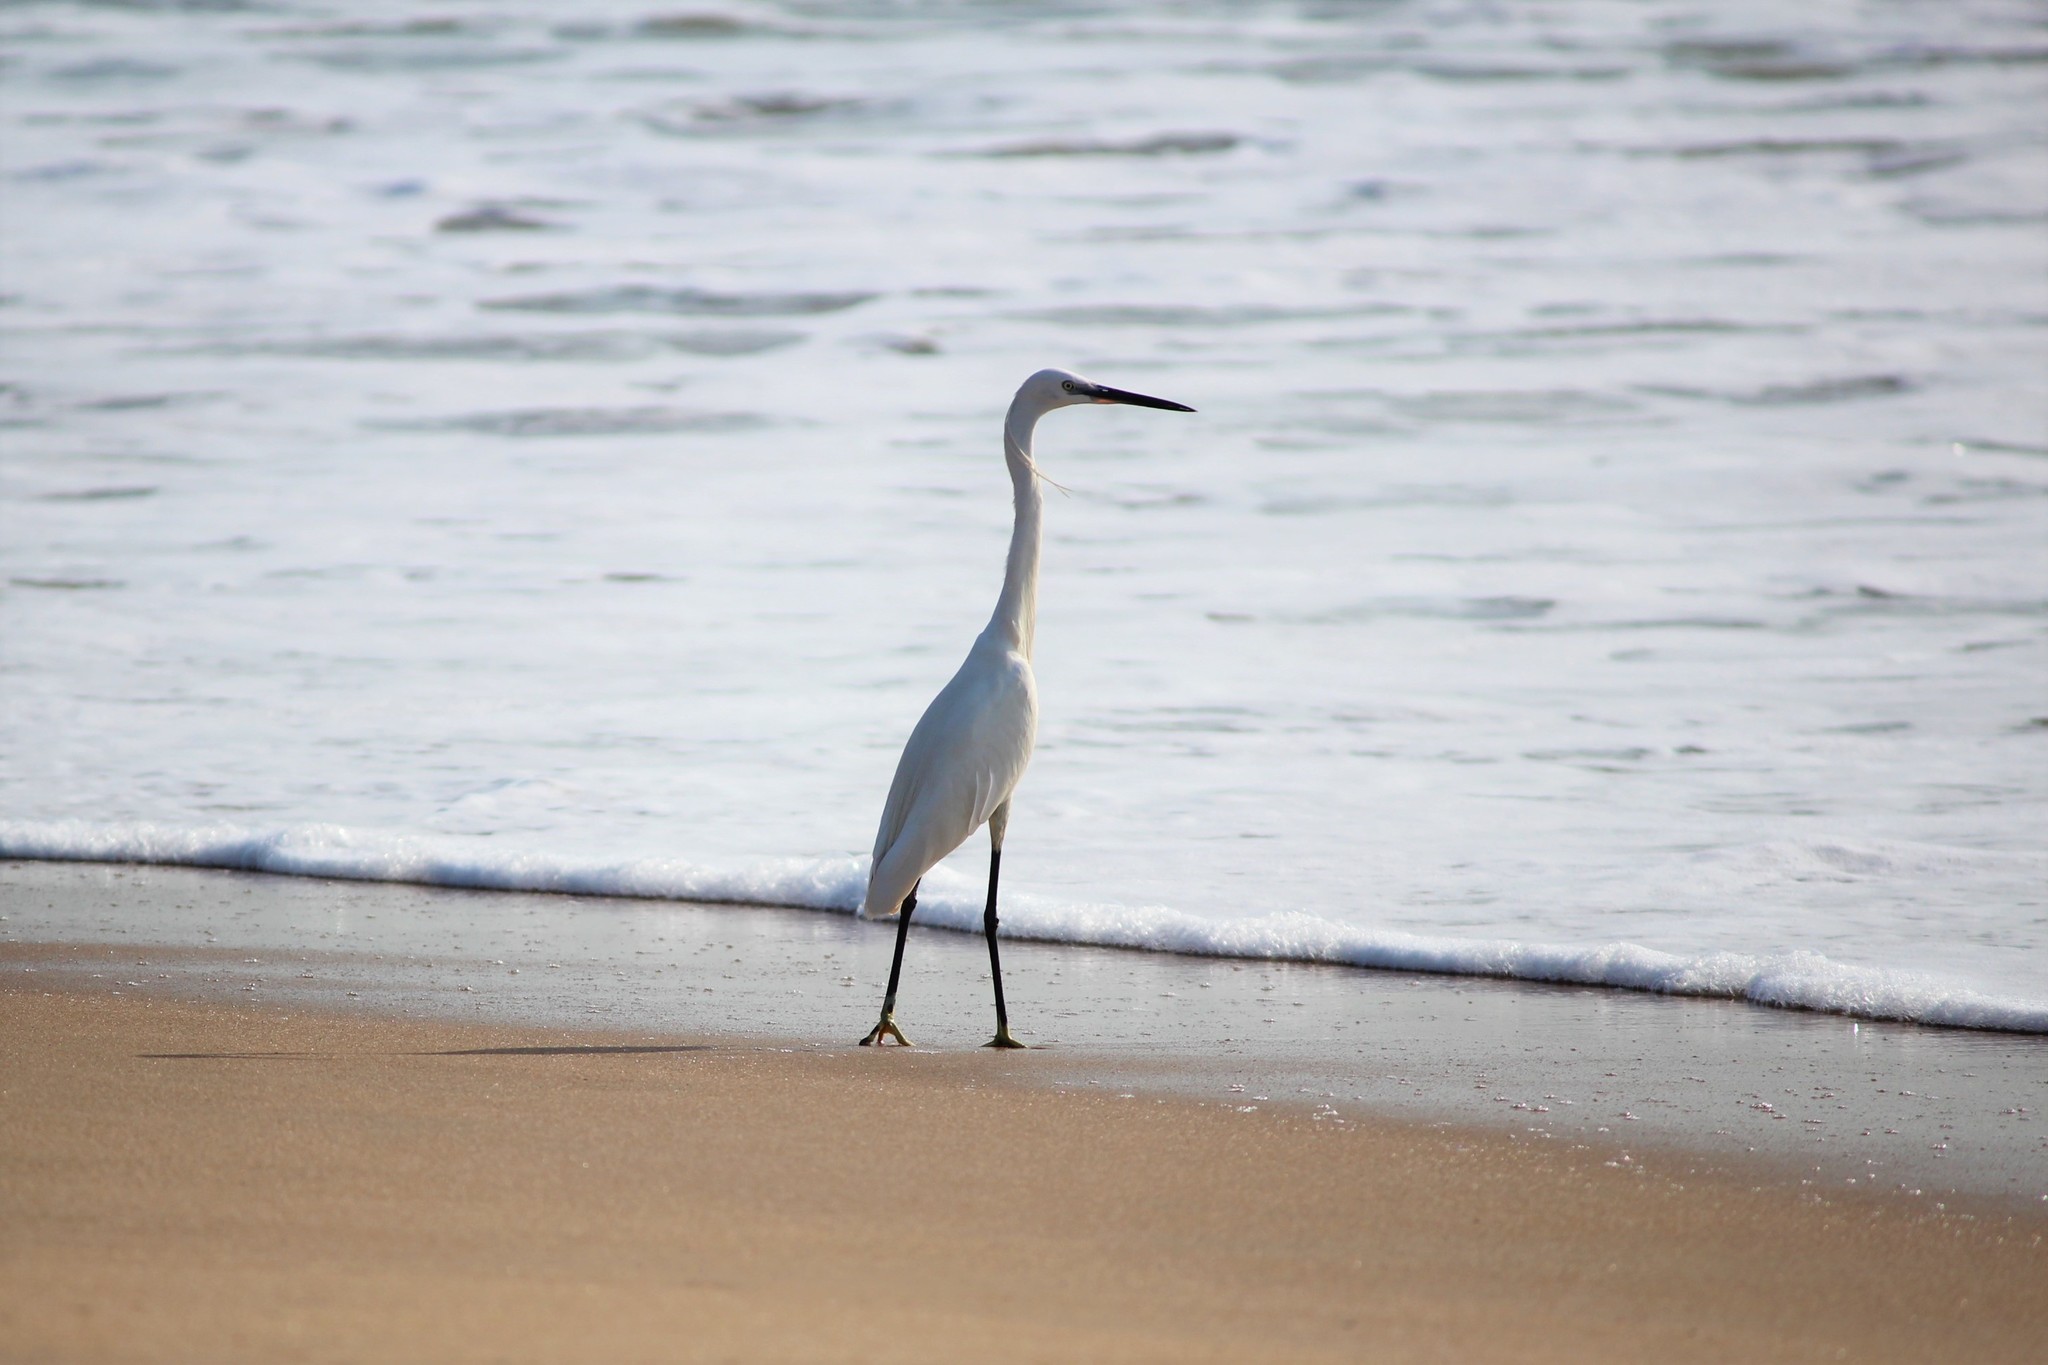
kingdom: Animalia
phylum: Chordata
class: Aves
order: Pelecaniformes
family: Ardeidae
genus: Egretta
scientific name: Egretta garzetta
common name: Little egret
